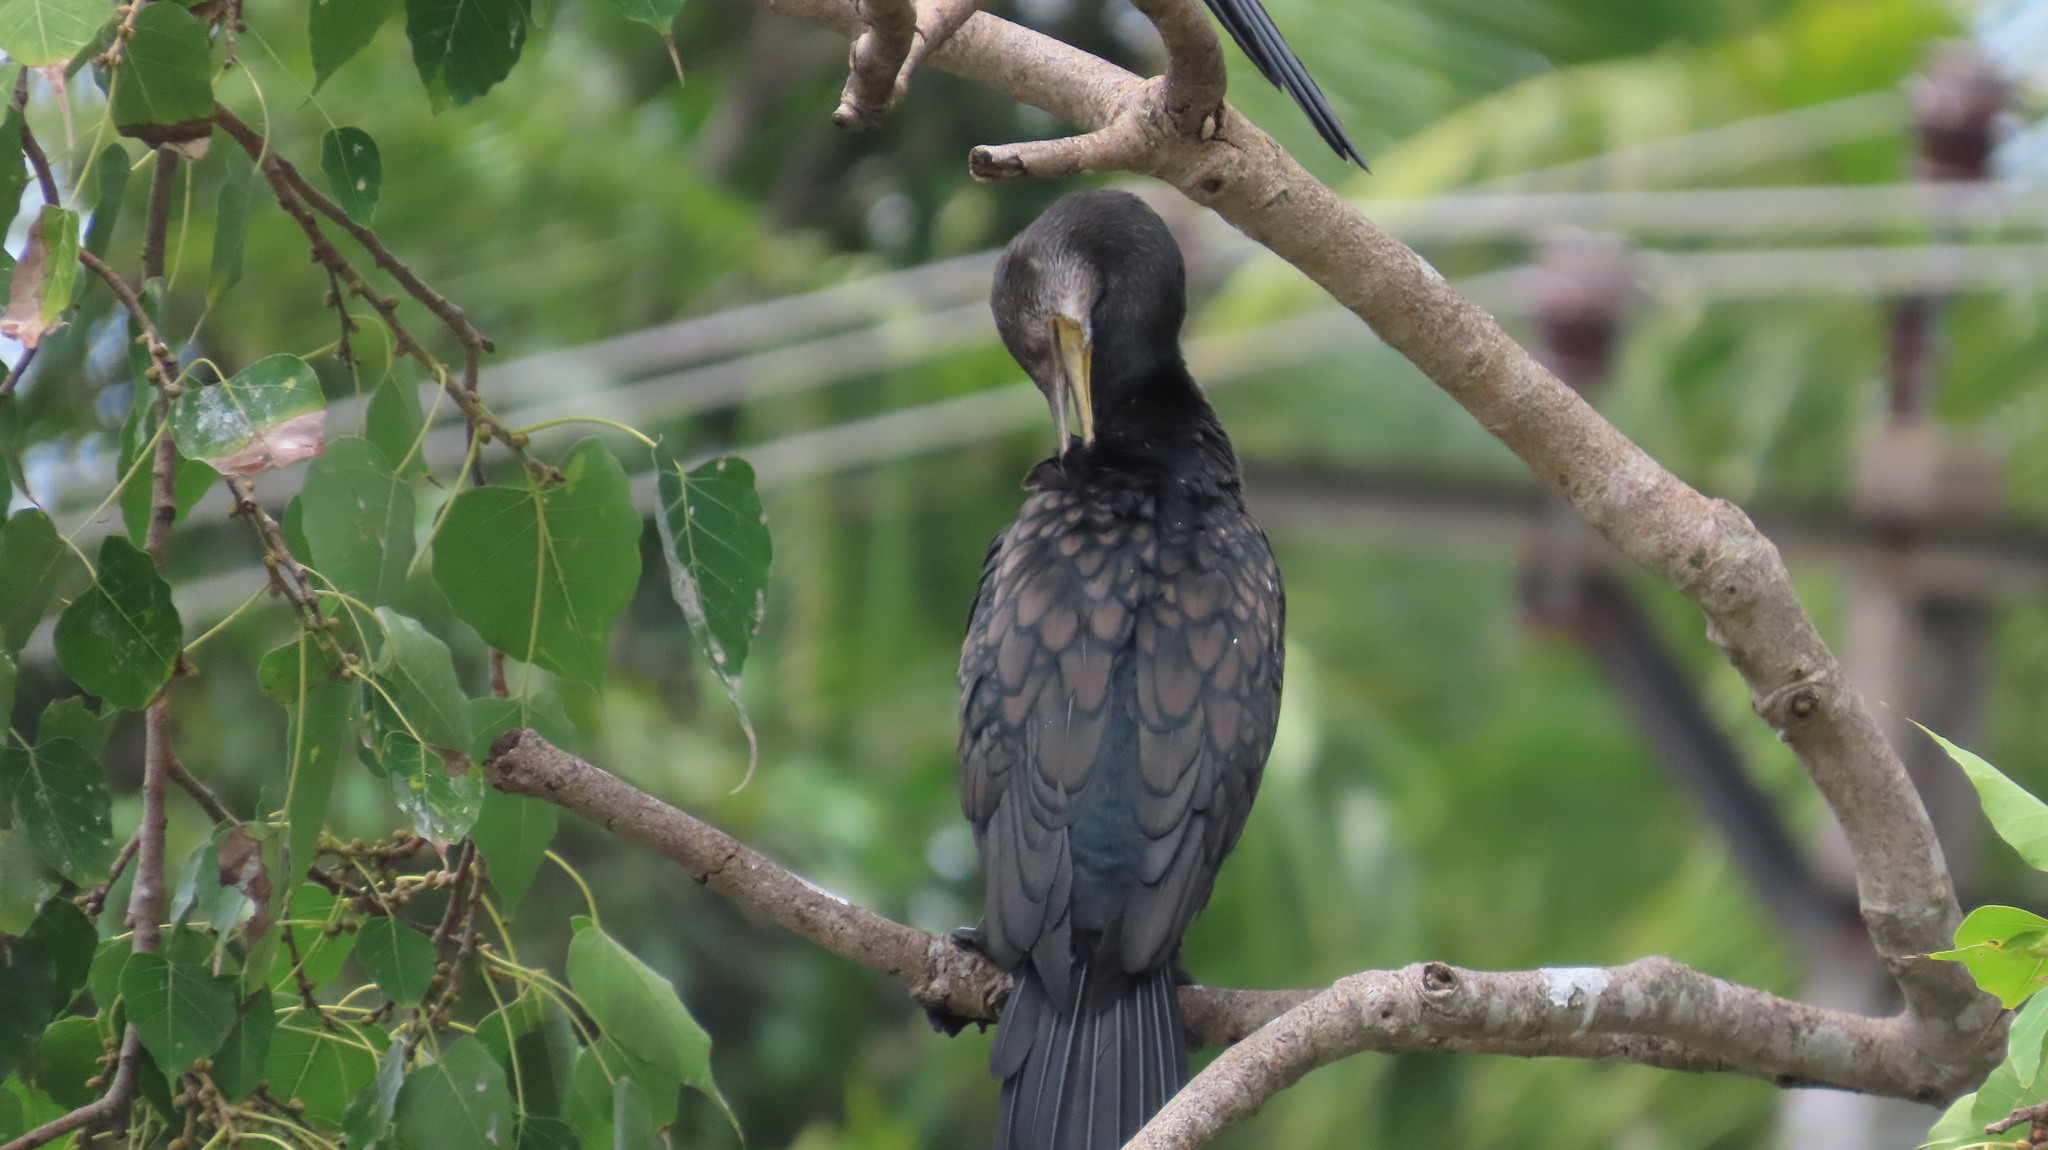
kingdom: Animalia
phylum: Chordata
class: Aves
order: Suliformes
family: Phalacrocoracidae
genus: Phalacrocorax
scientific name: Phalacrocorax fuscicollis
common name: Indian cormorant
